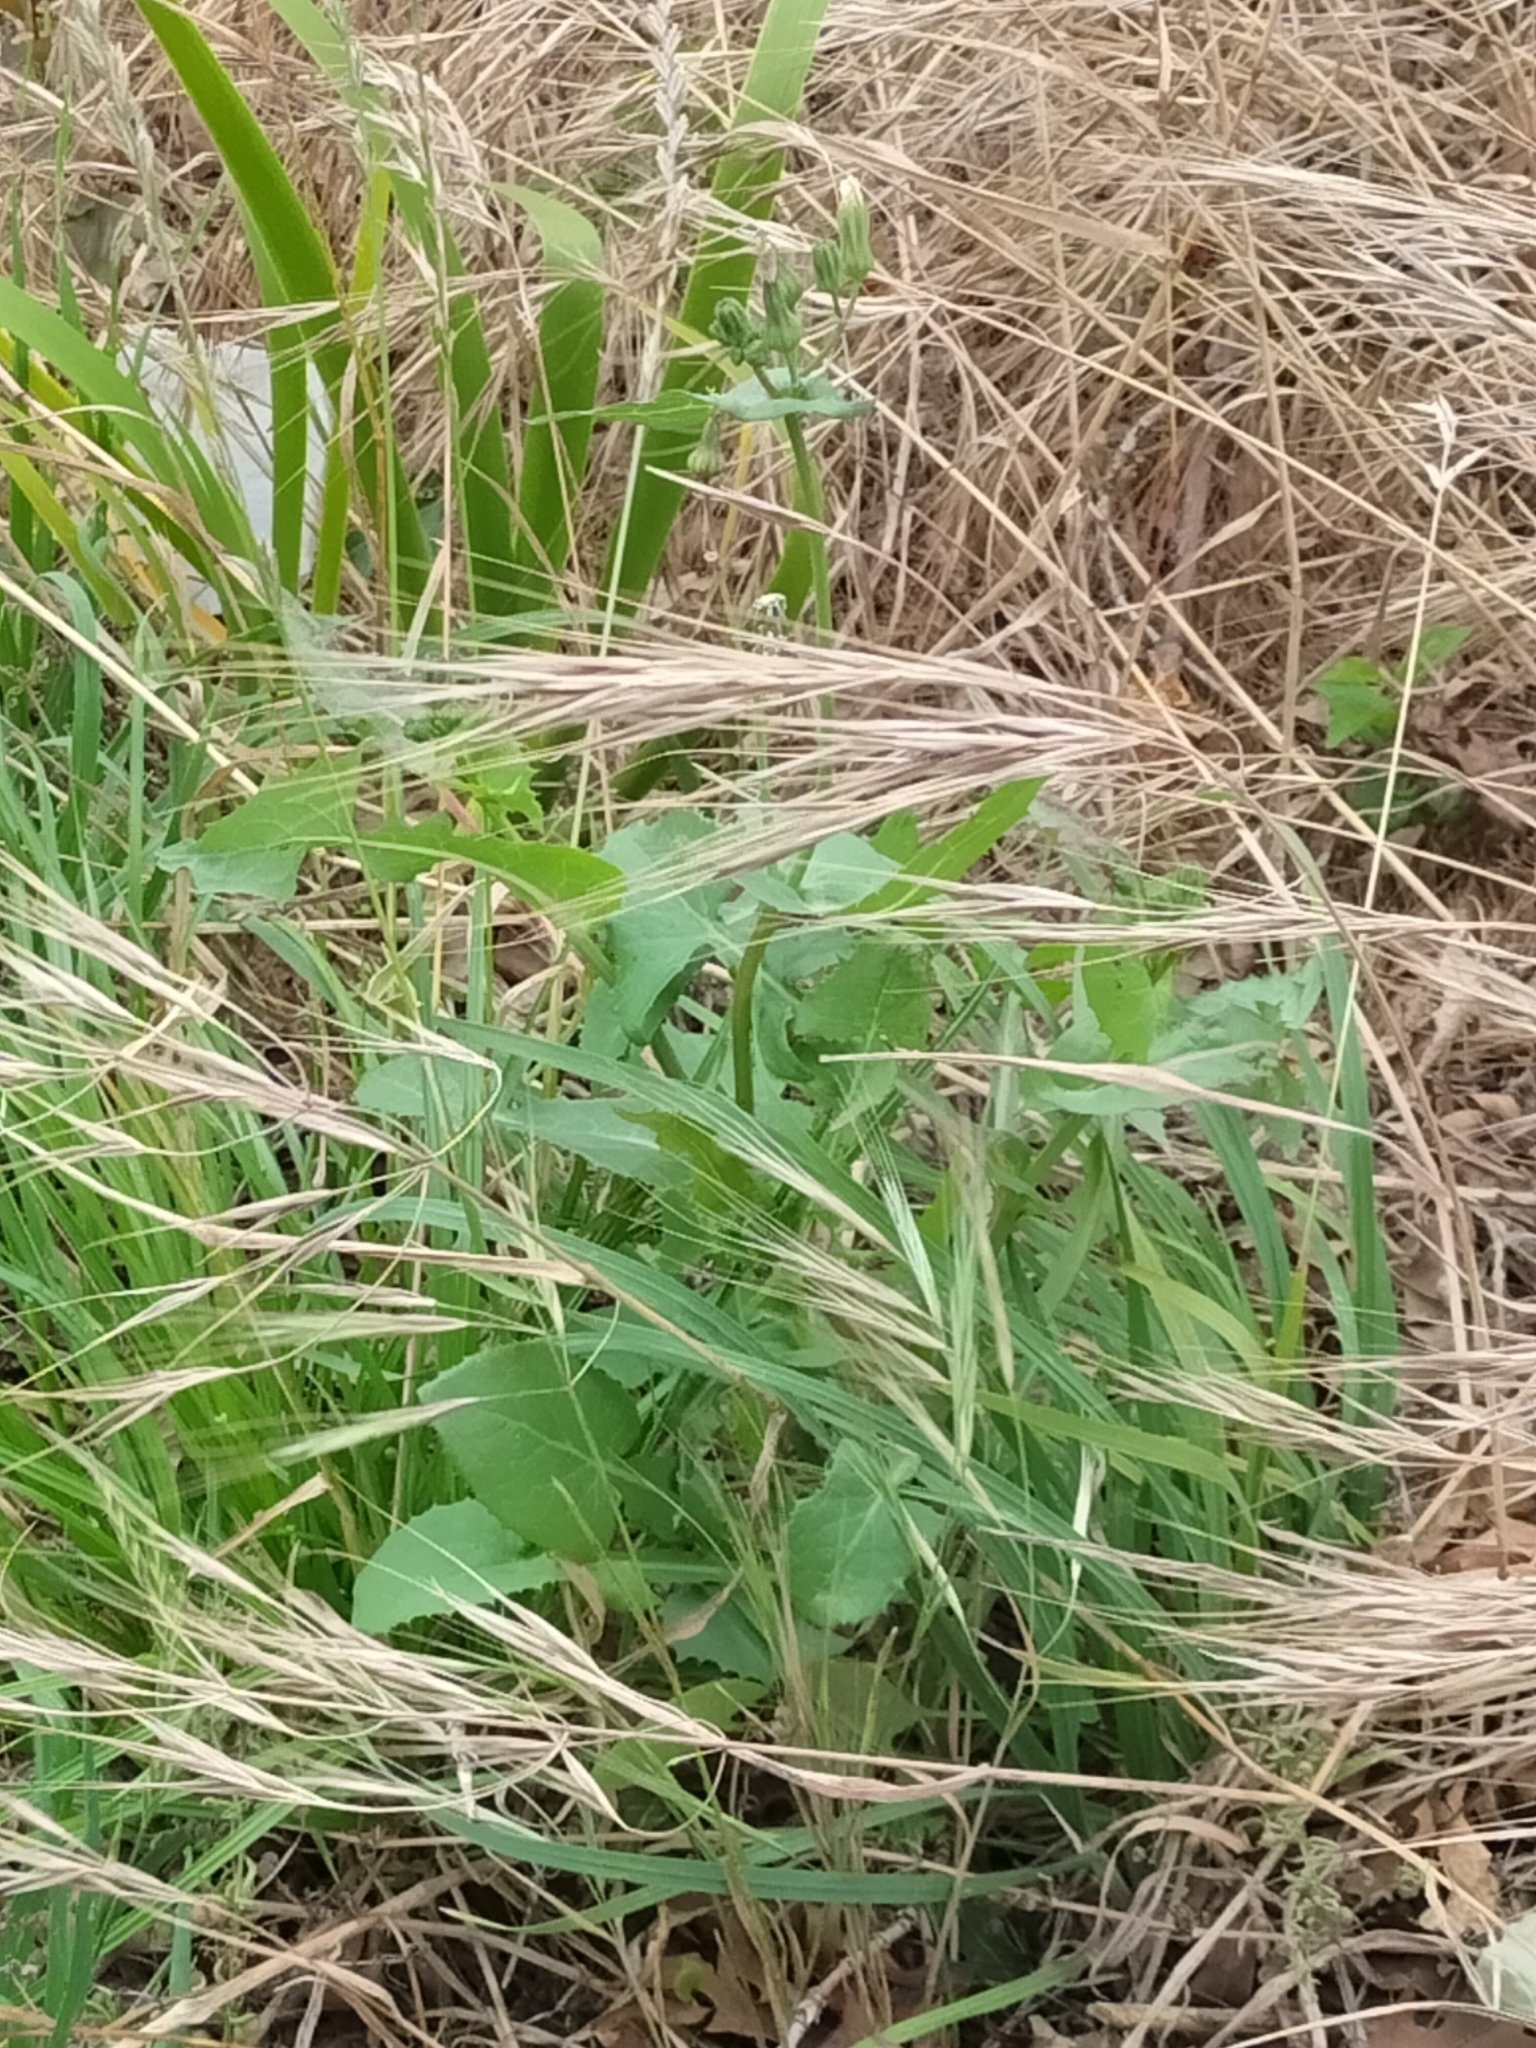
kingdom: Plantae
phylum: Tracheophyta
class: Magnoliopsida
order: Asterales
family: Asteraceae
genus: Sonchus
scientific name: Sonchus oleraceus
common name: Common sowthistle
